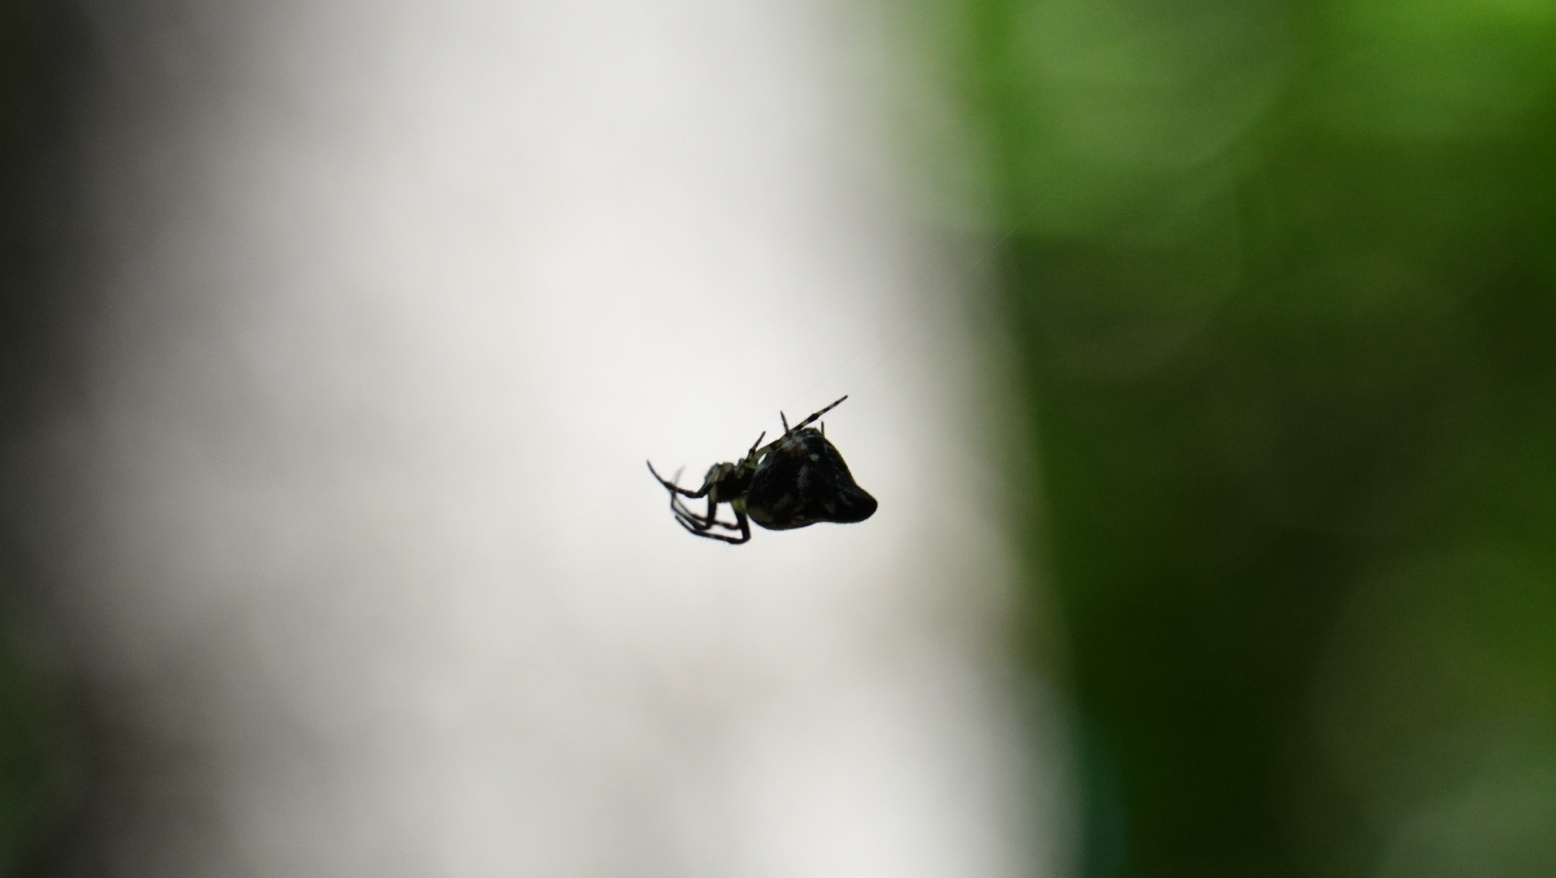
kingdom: Animalia
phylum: Arthropoda
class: Arachnida
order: Araneae
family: Araneidae
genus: Cyclosa
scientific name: Cyclosa conica
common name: Conical trashline orbweaver
